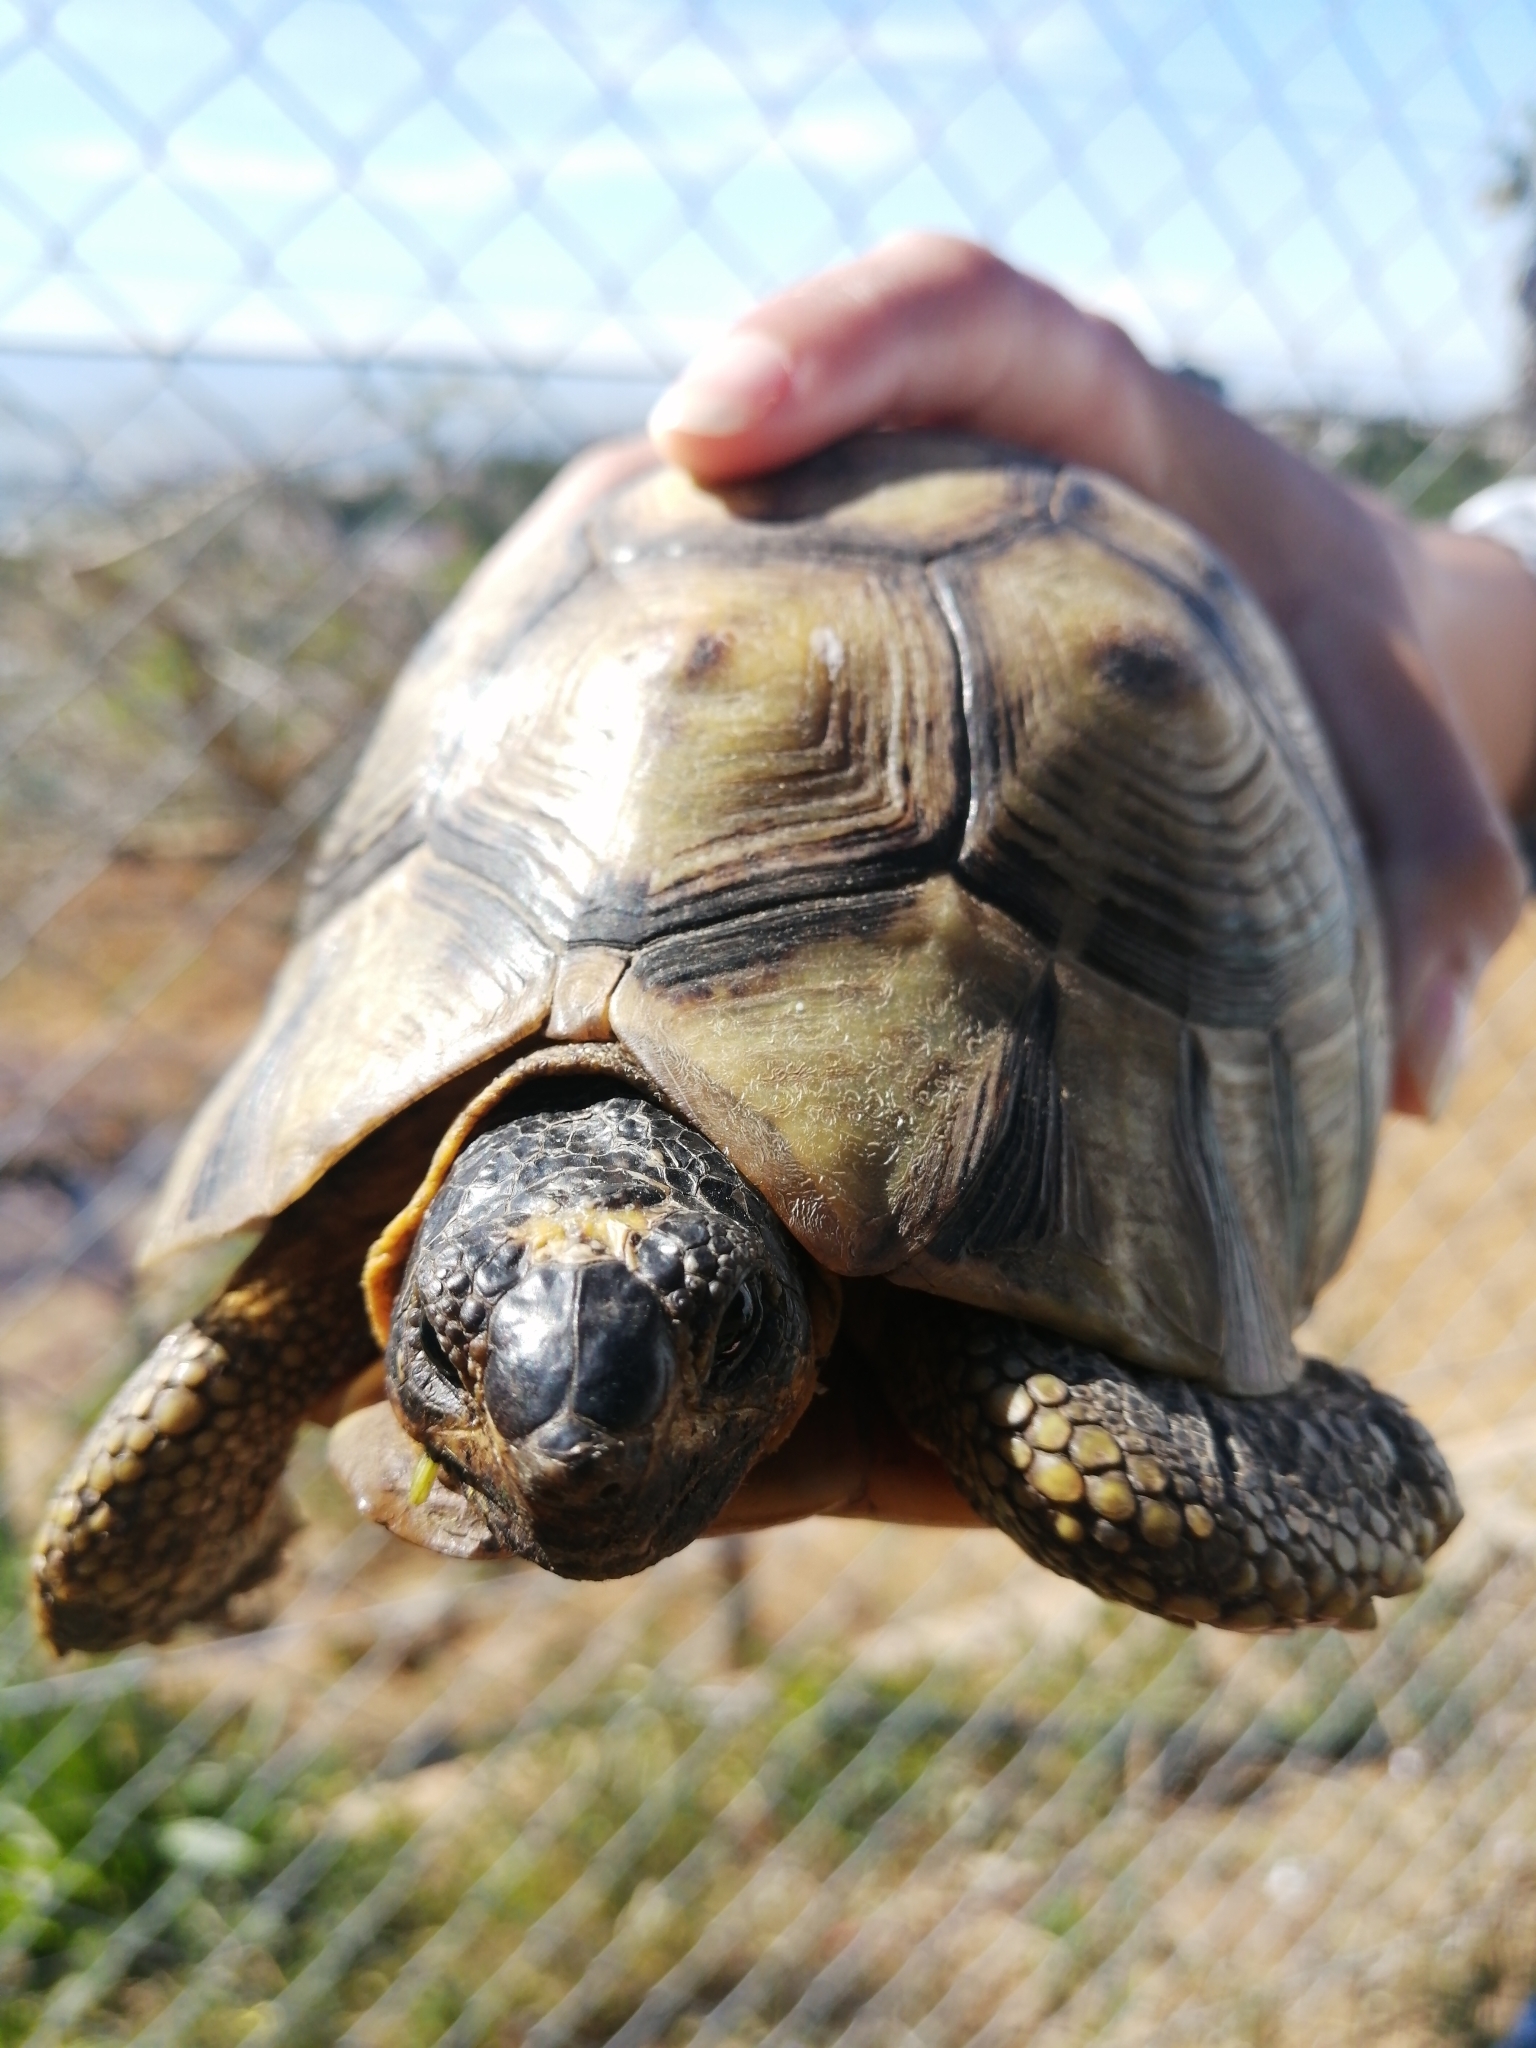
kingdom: Animalia
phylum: Chordata
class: Testudines
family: Testudinidae
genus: Chersina
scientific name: Chersina angulata
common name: South african bowsprit tortoise
